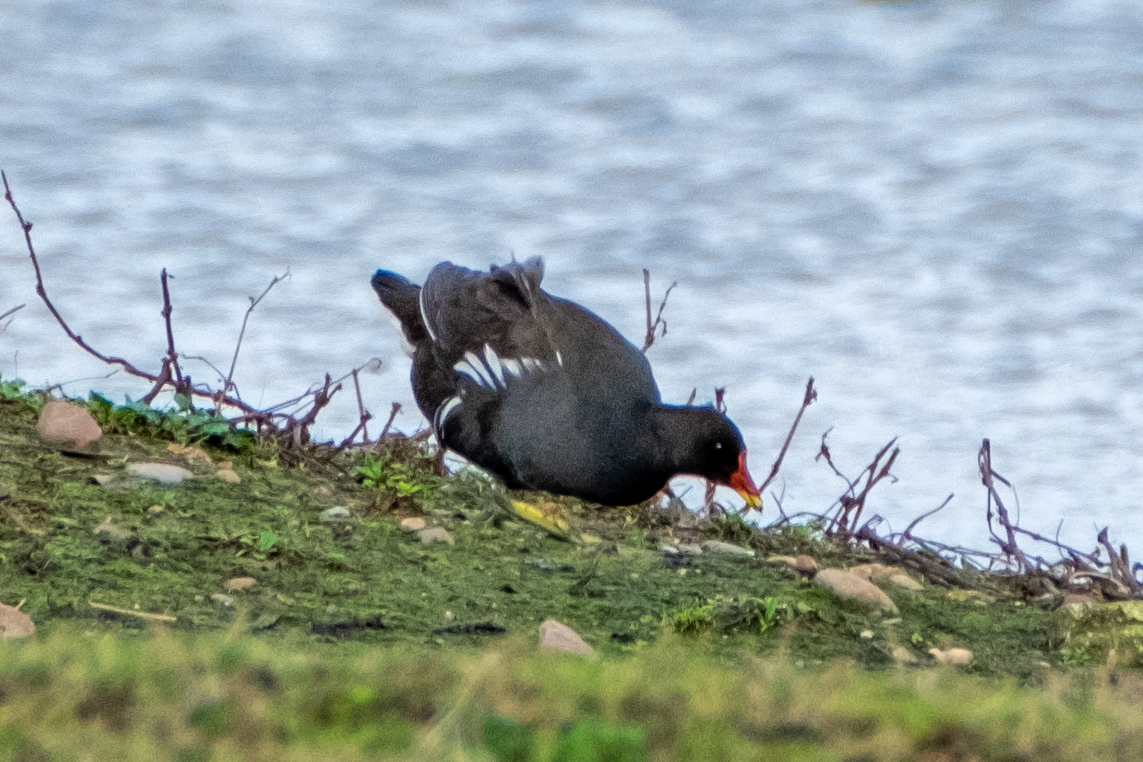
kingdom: Animalia
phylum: Chordata
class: Aves
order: Gruiformes
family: Rallidae
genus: Gallinula
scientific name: Gallinula chloropus
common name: Common moorhen
